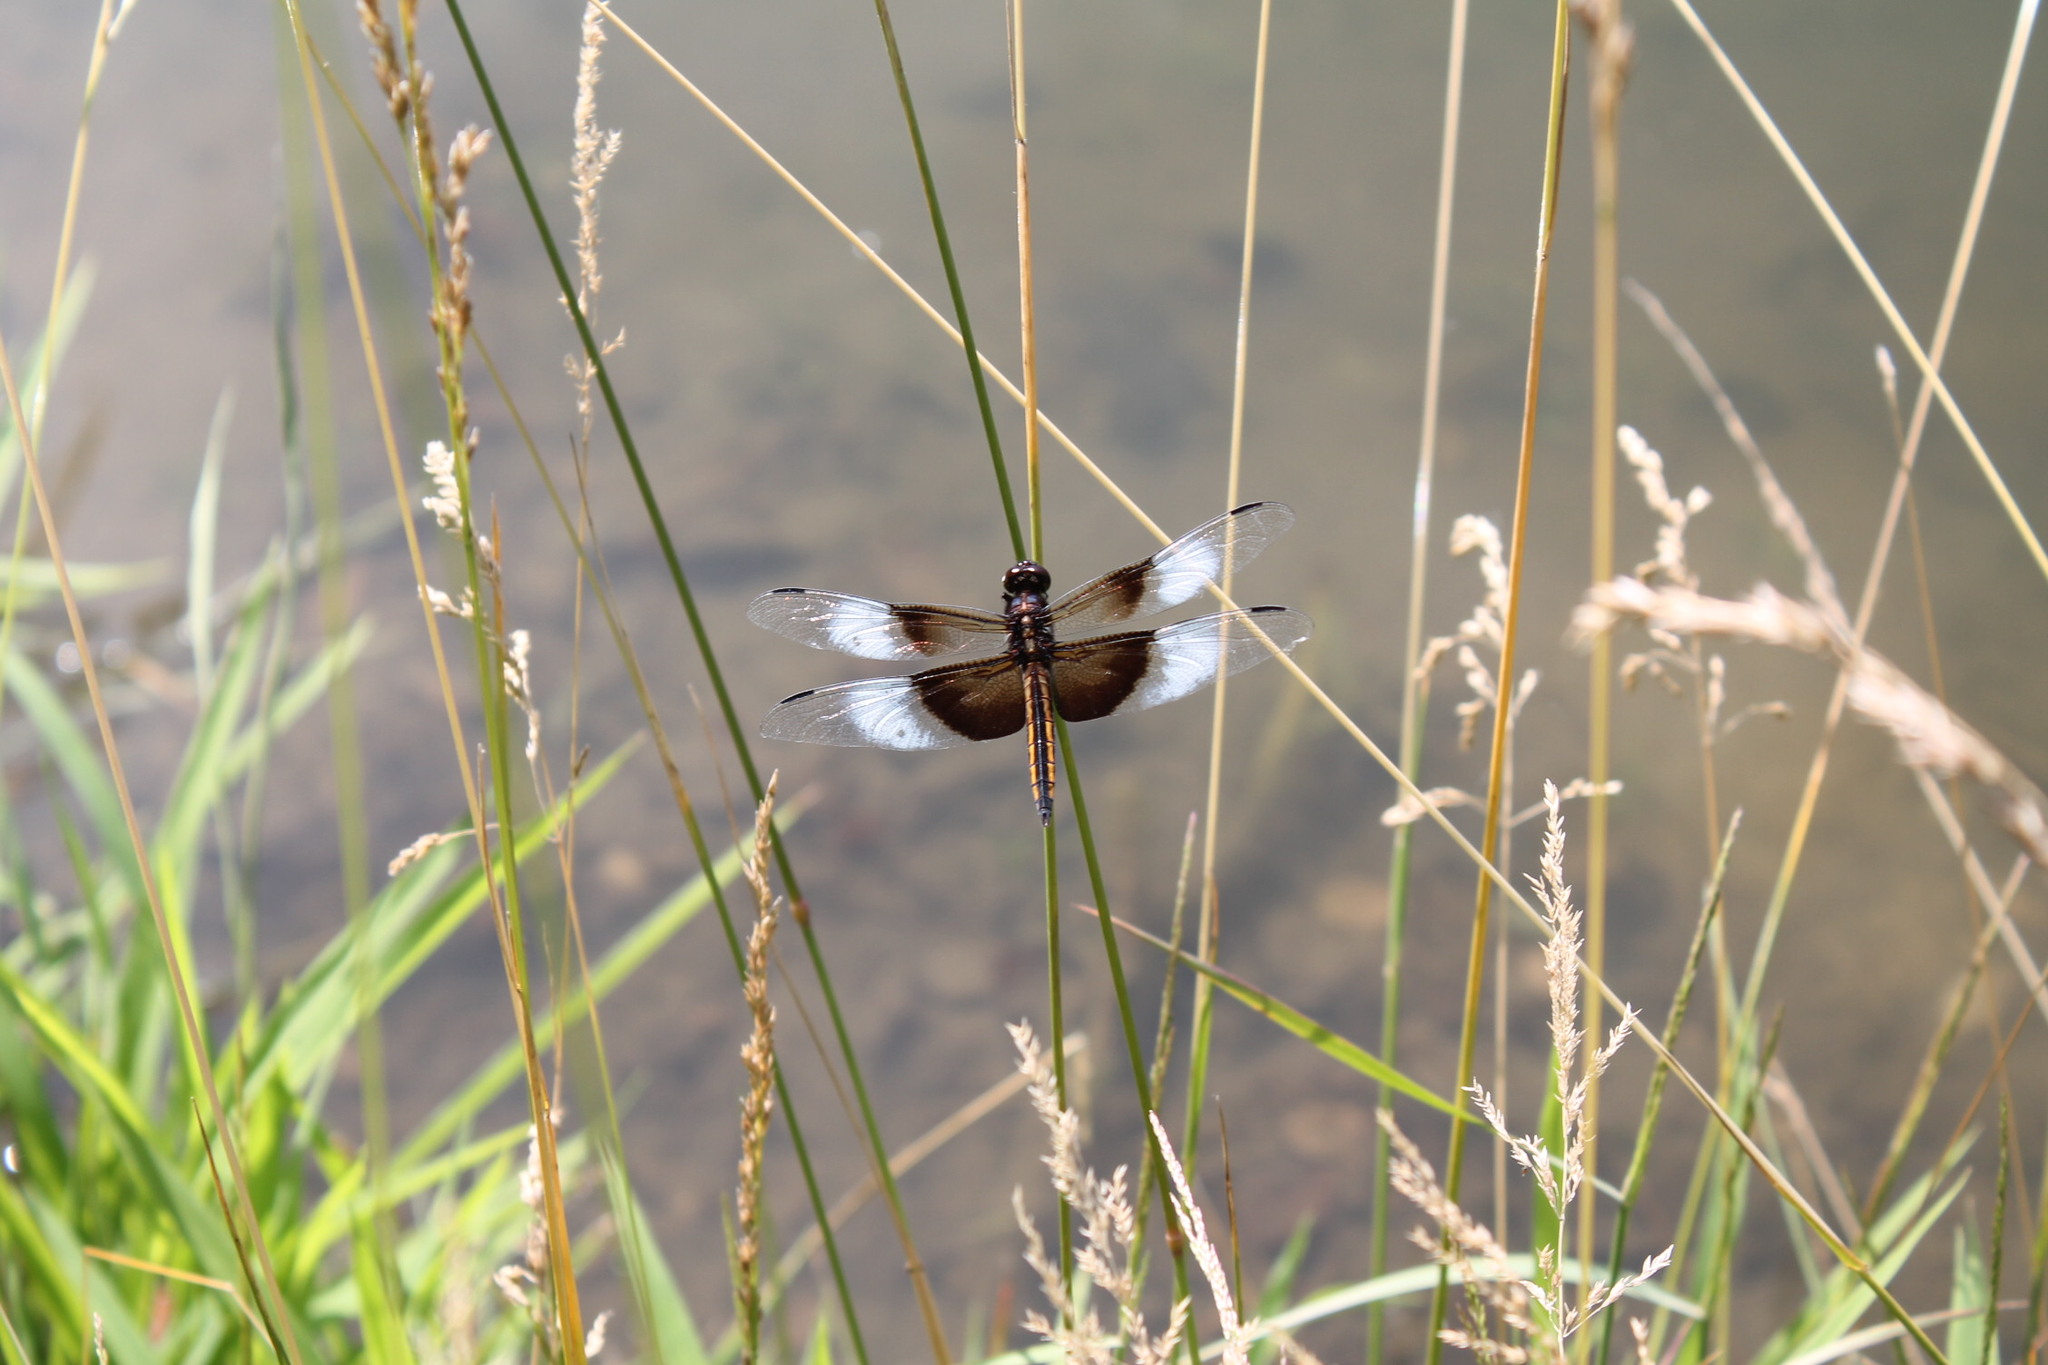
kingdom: Animalia
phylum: Arthropoda
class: Insecta
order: Odonata
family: Libellulidae
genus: Libellula
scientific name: Libellula luctuosa
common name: Widow skimmer
